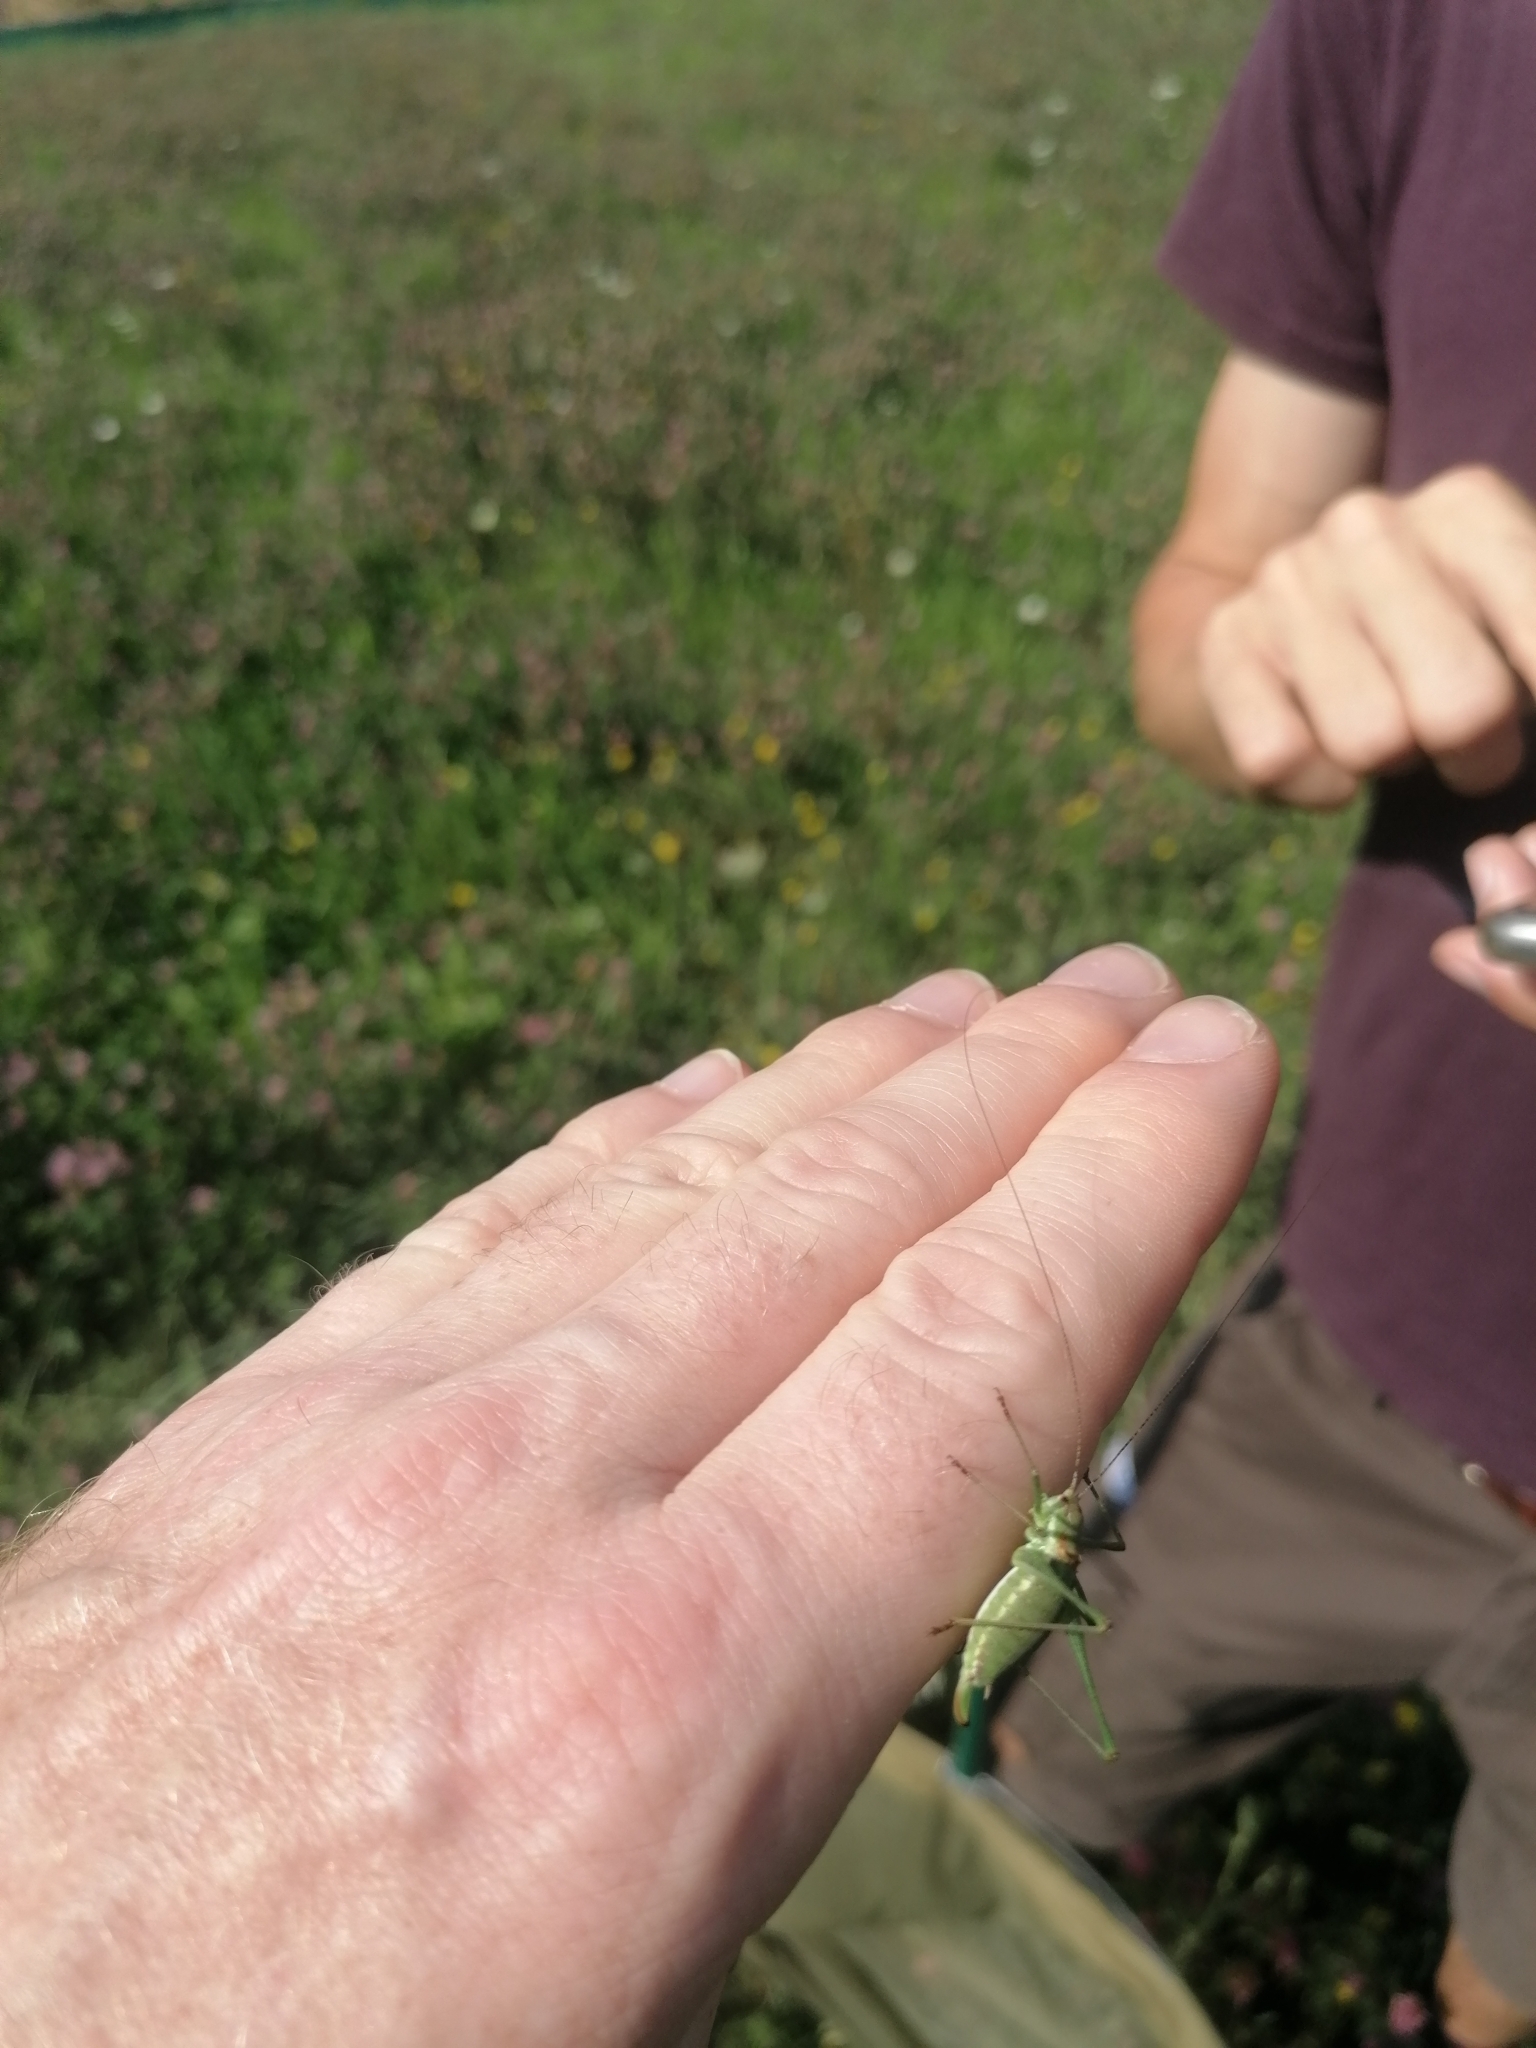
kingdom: Animalia
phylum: Arthropoda
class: Insecta
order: Orthoptera
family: Tettigoniidae
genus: Leptophyes
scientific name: Leptophyes albovittata
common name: Striped bush-cricket
